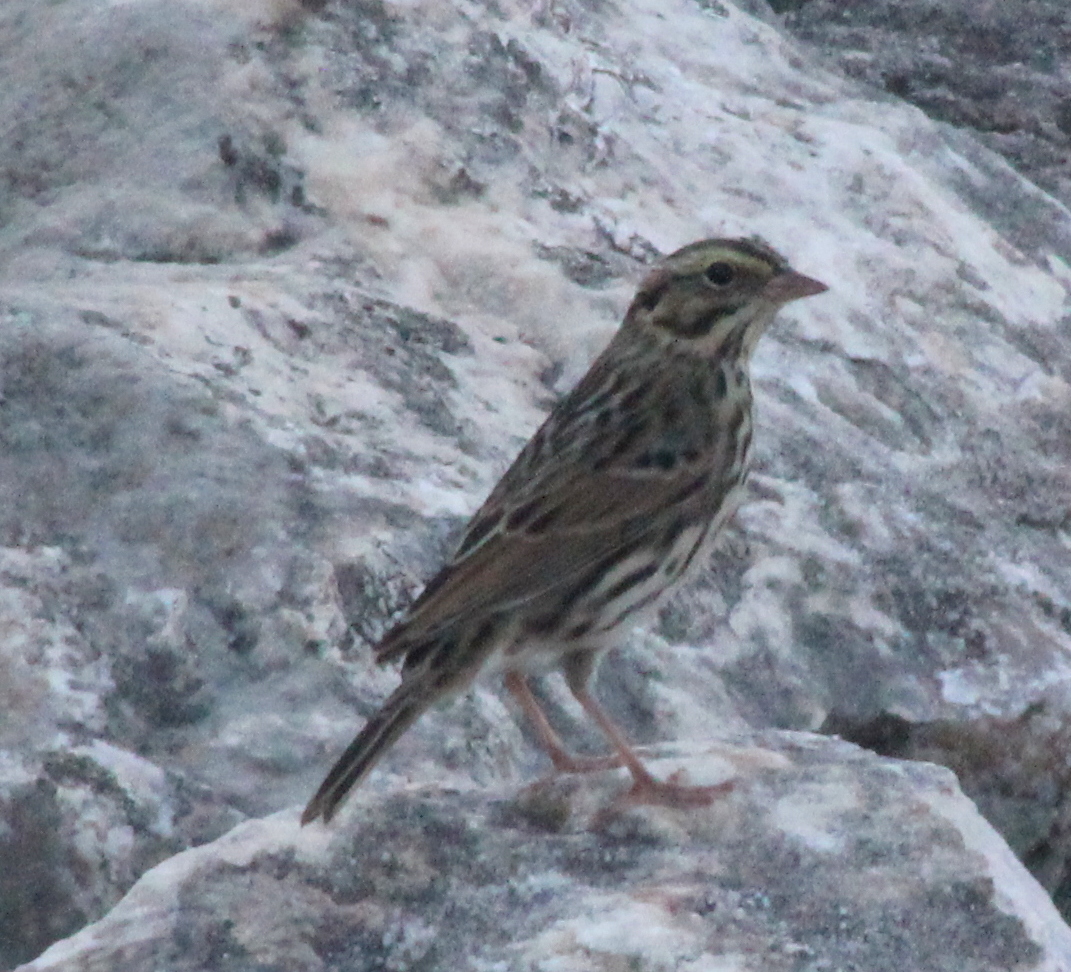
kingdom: Animalia
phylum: Chordata
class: Aves
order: Passeriformes
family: Passerellidae
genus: Passerculus
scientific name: Passerculus sandwichensis
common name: Savannah sparrow
